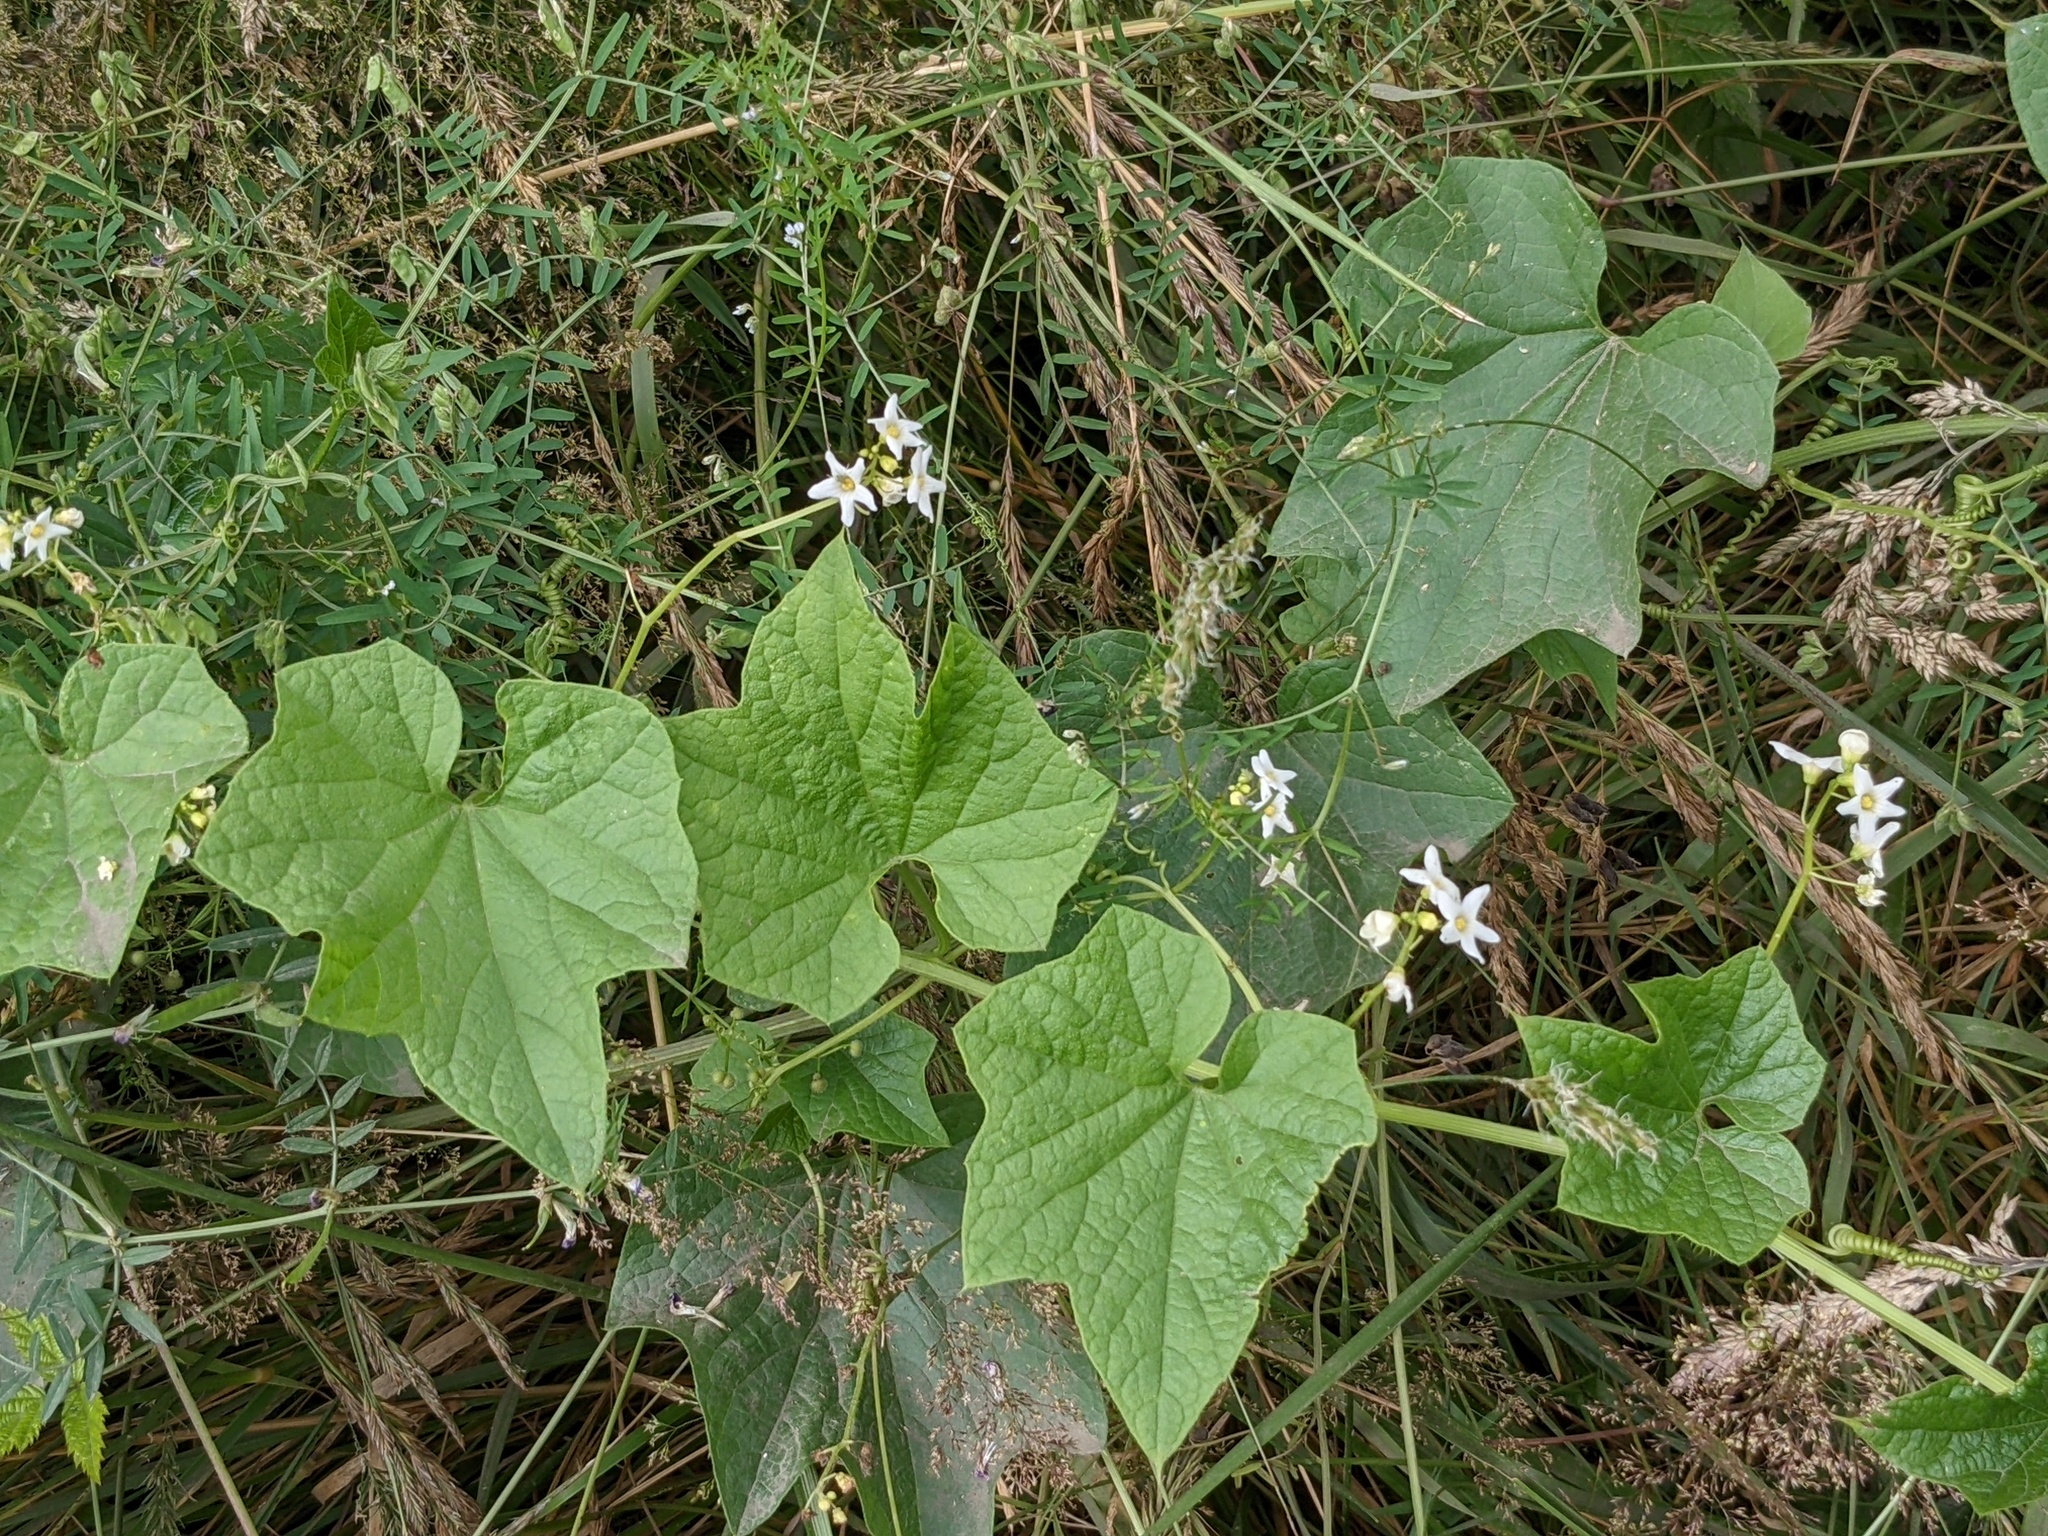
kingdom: Plantae
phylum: Tracheophyta
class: Magnoliopsida
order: Cucurbitales
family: Cucurbitaceae
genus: Marah
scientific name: Marah oregana
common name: Coastal manroot
